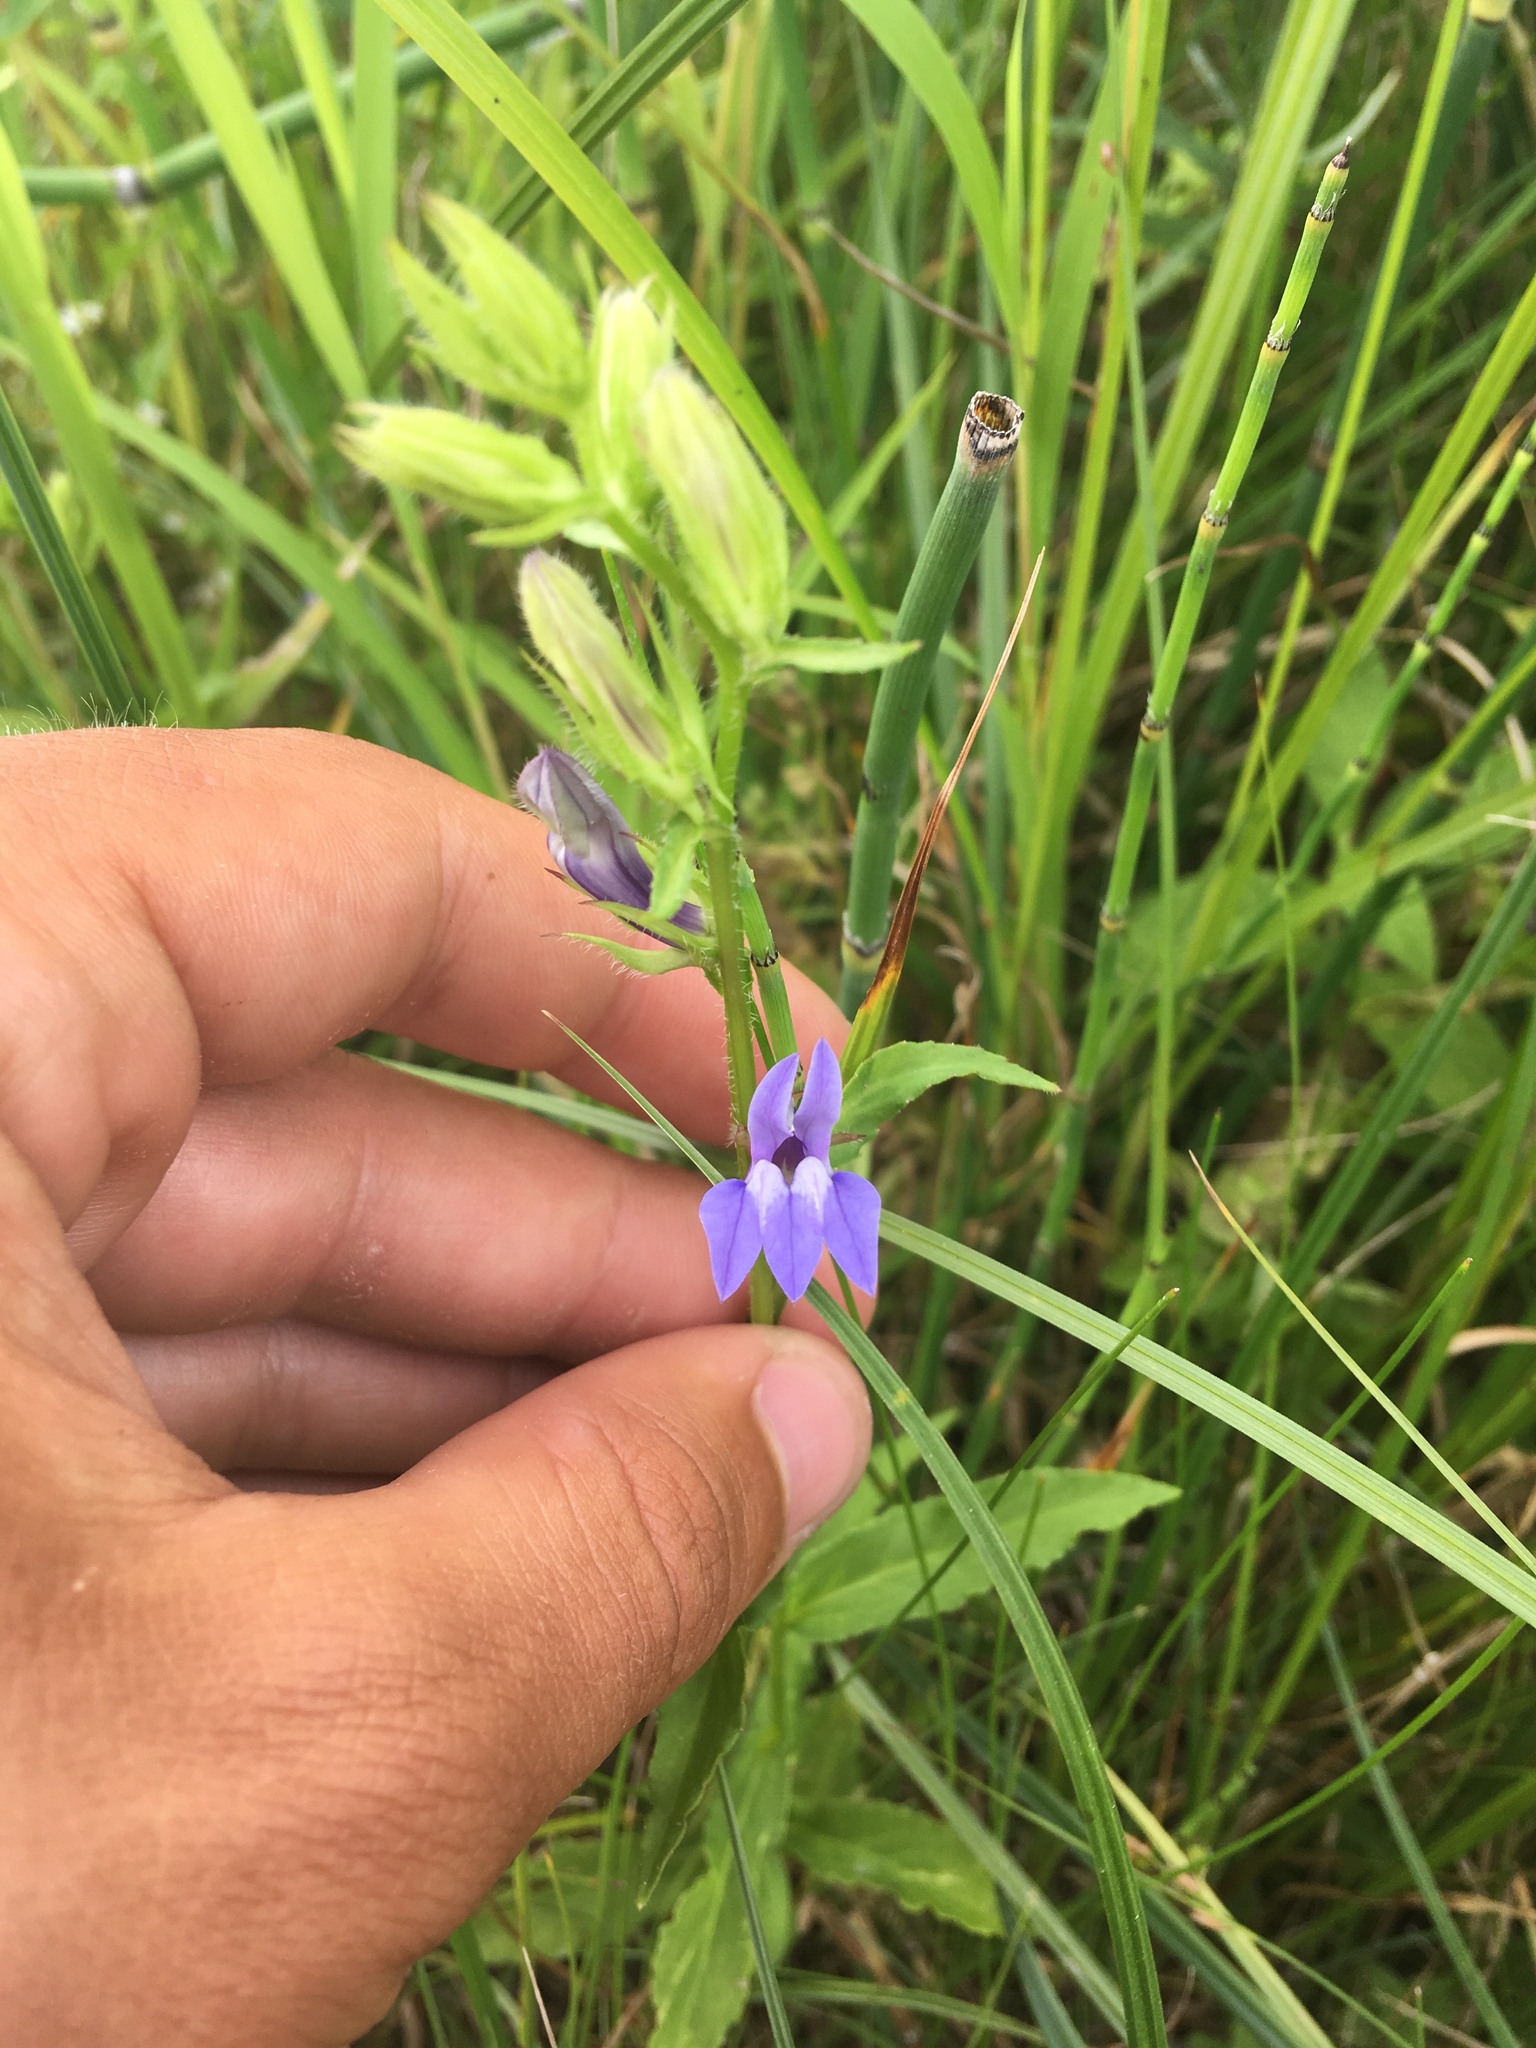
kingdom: Plantae
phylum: Tracheophyta
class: Magnoliopsida
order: Asterales
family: Campanulaceae
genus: Lobelia
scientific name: Lobelia siphilitica
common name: Great lobelia
